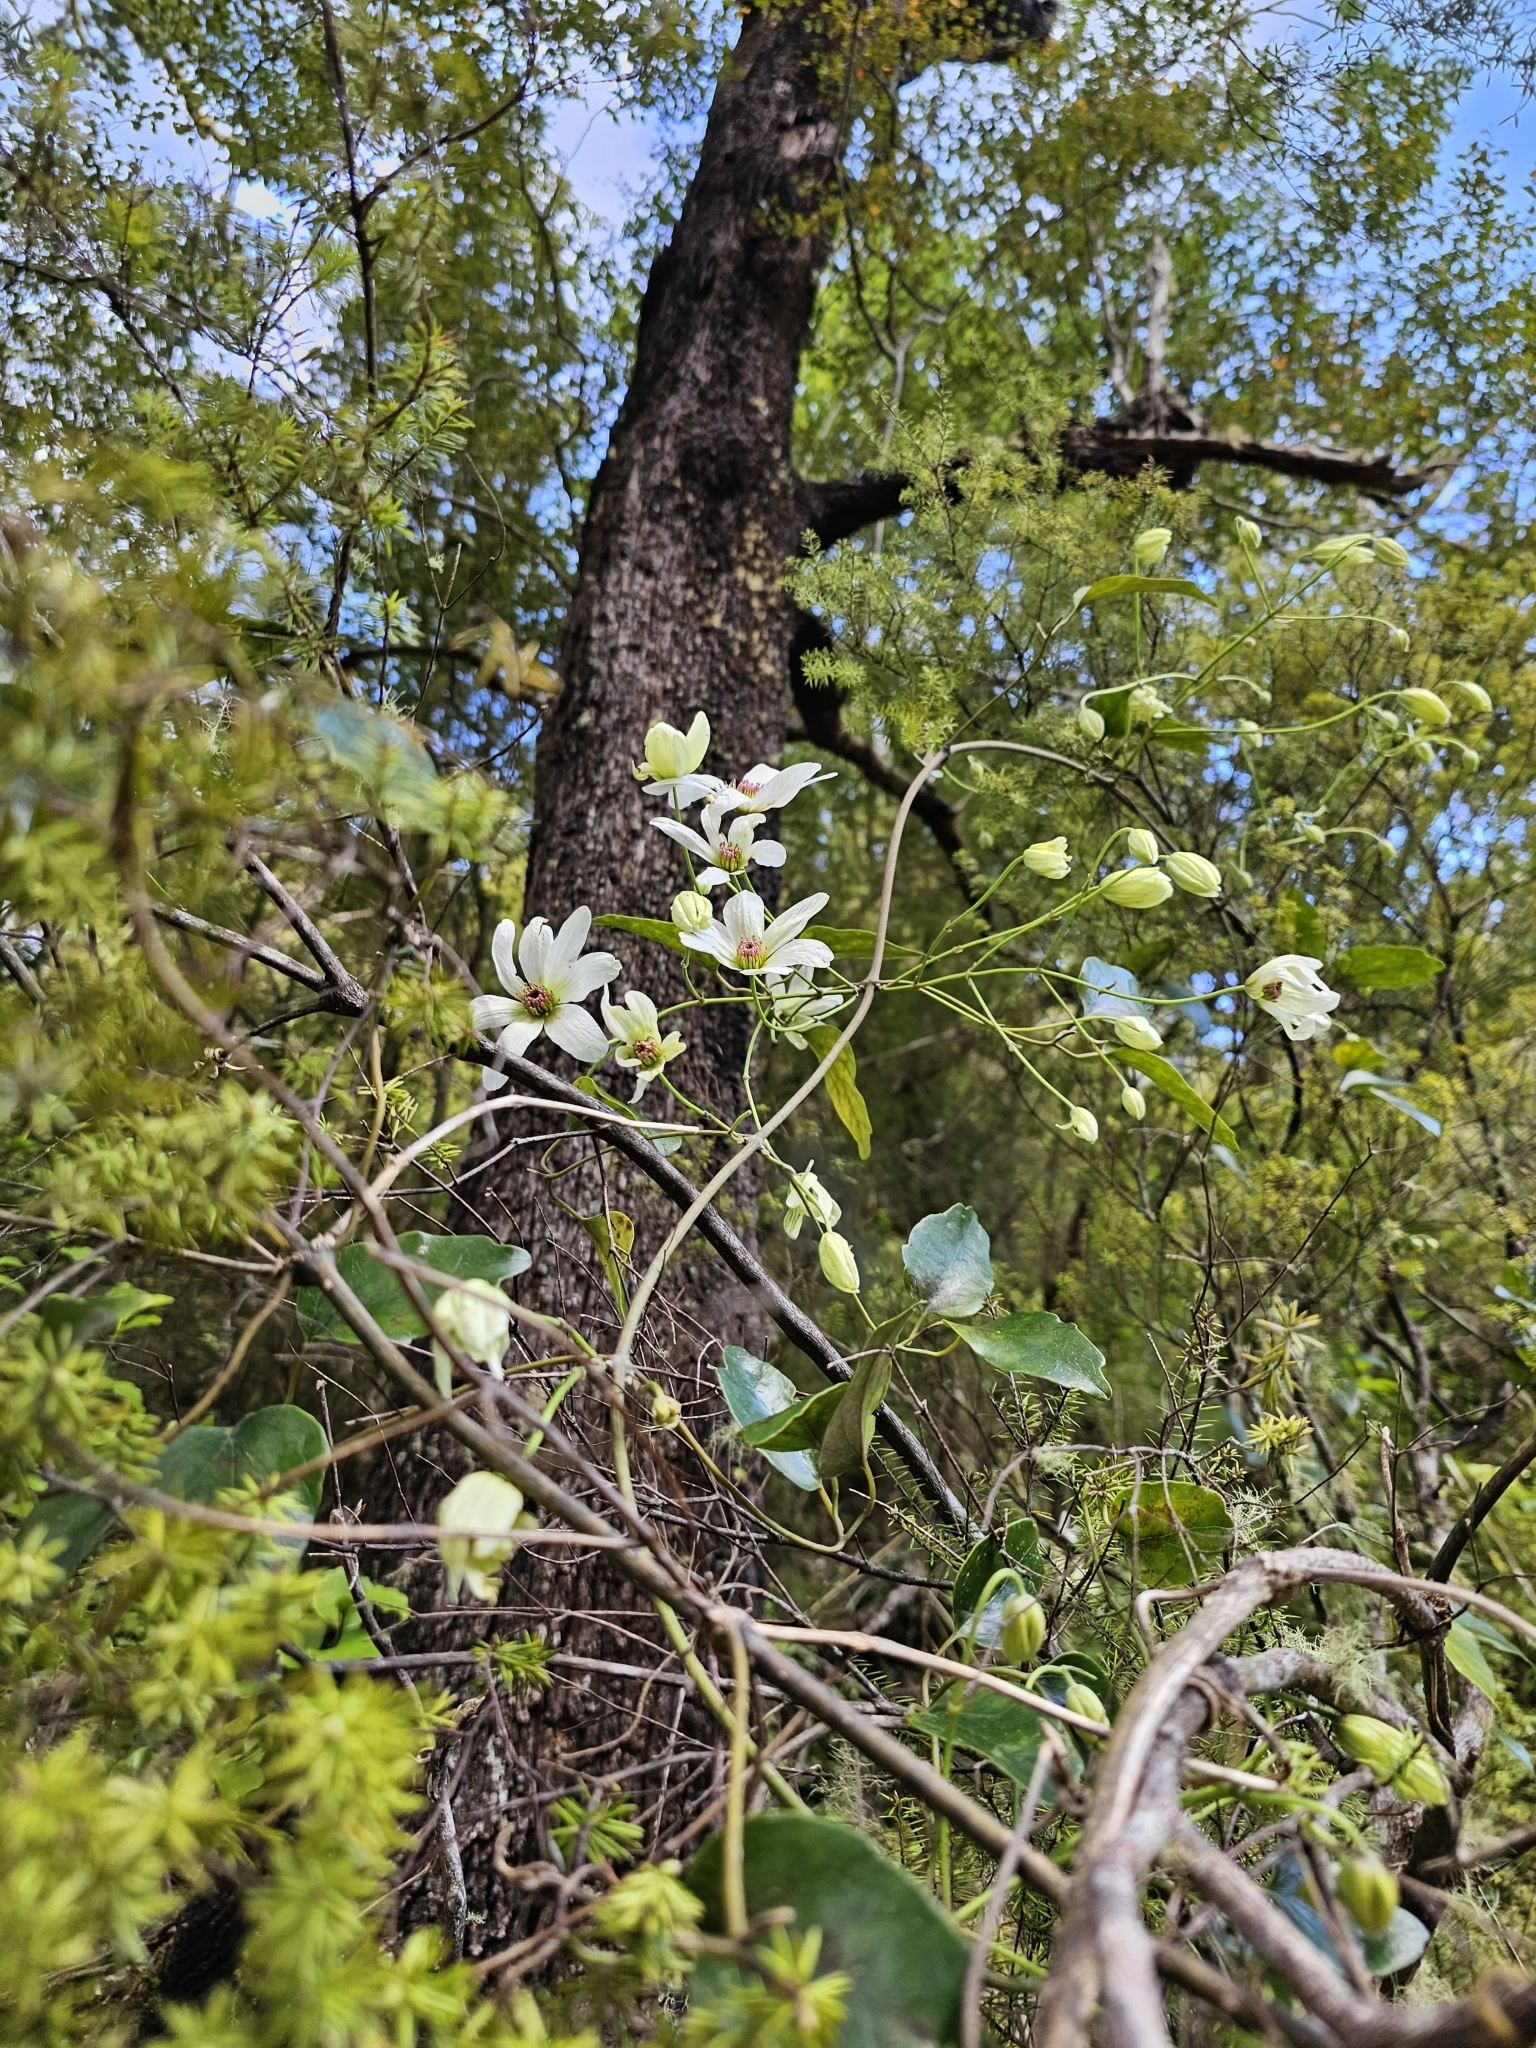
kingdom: Plantae
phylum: Tracheophyta
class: Magnoliopsida
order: Ranunculales
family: Ranunculaceae
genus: Clematis
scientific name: Clematis paniculata
